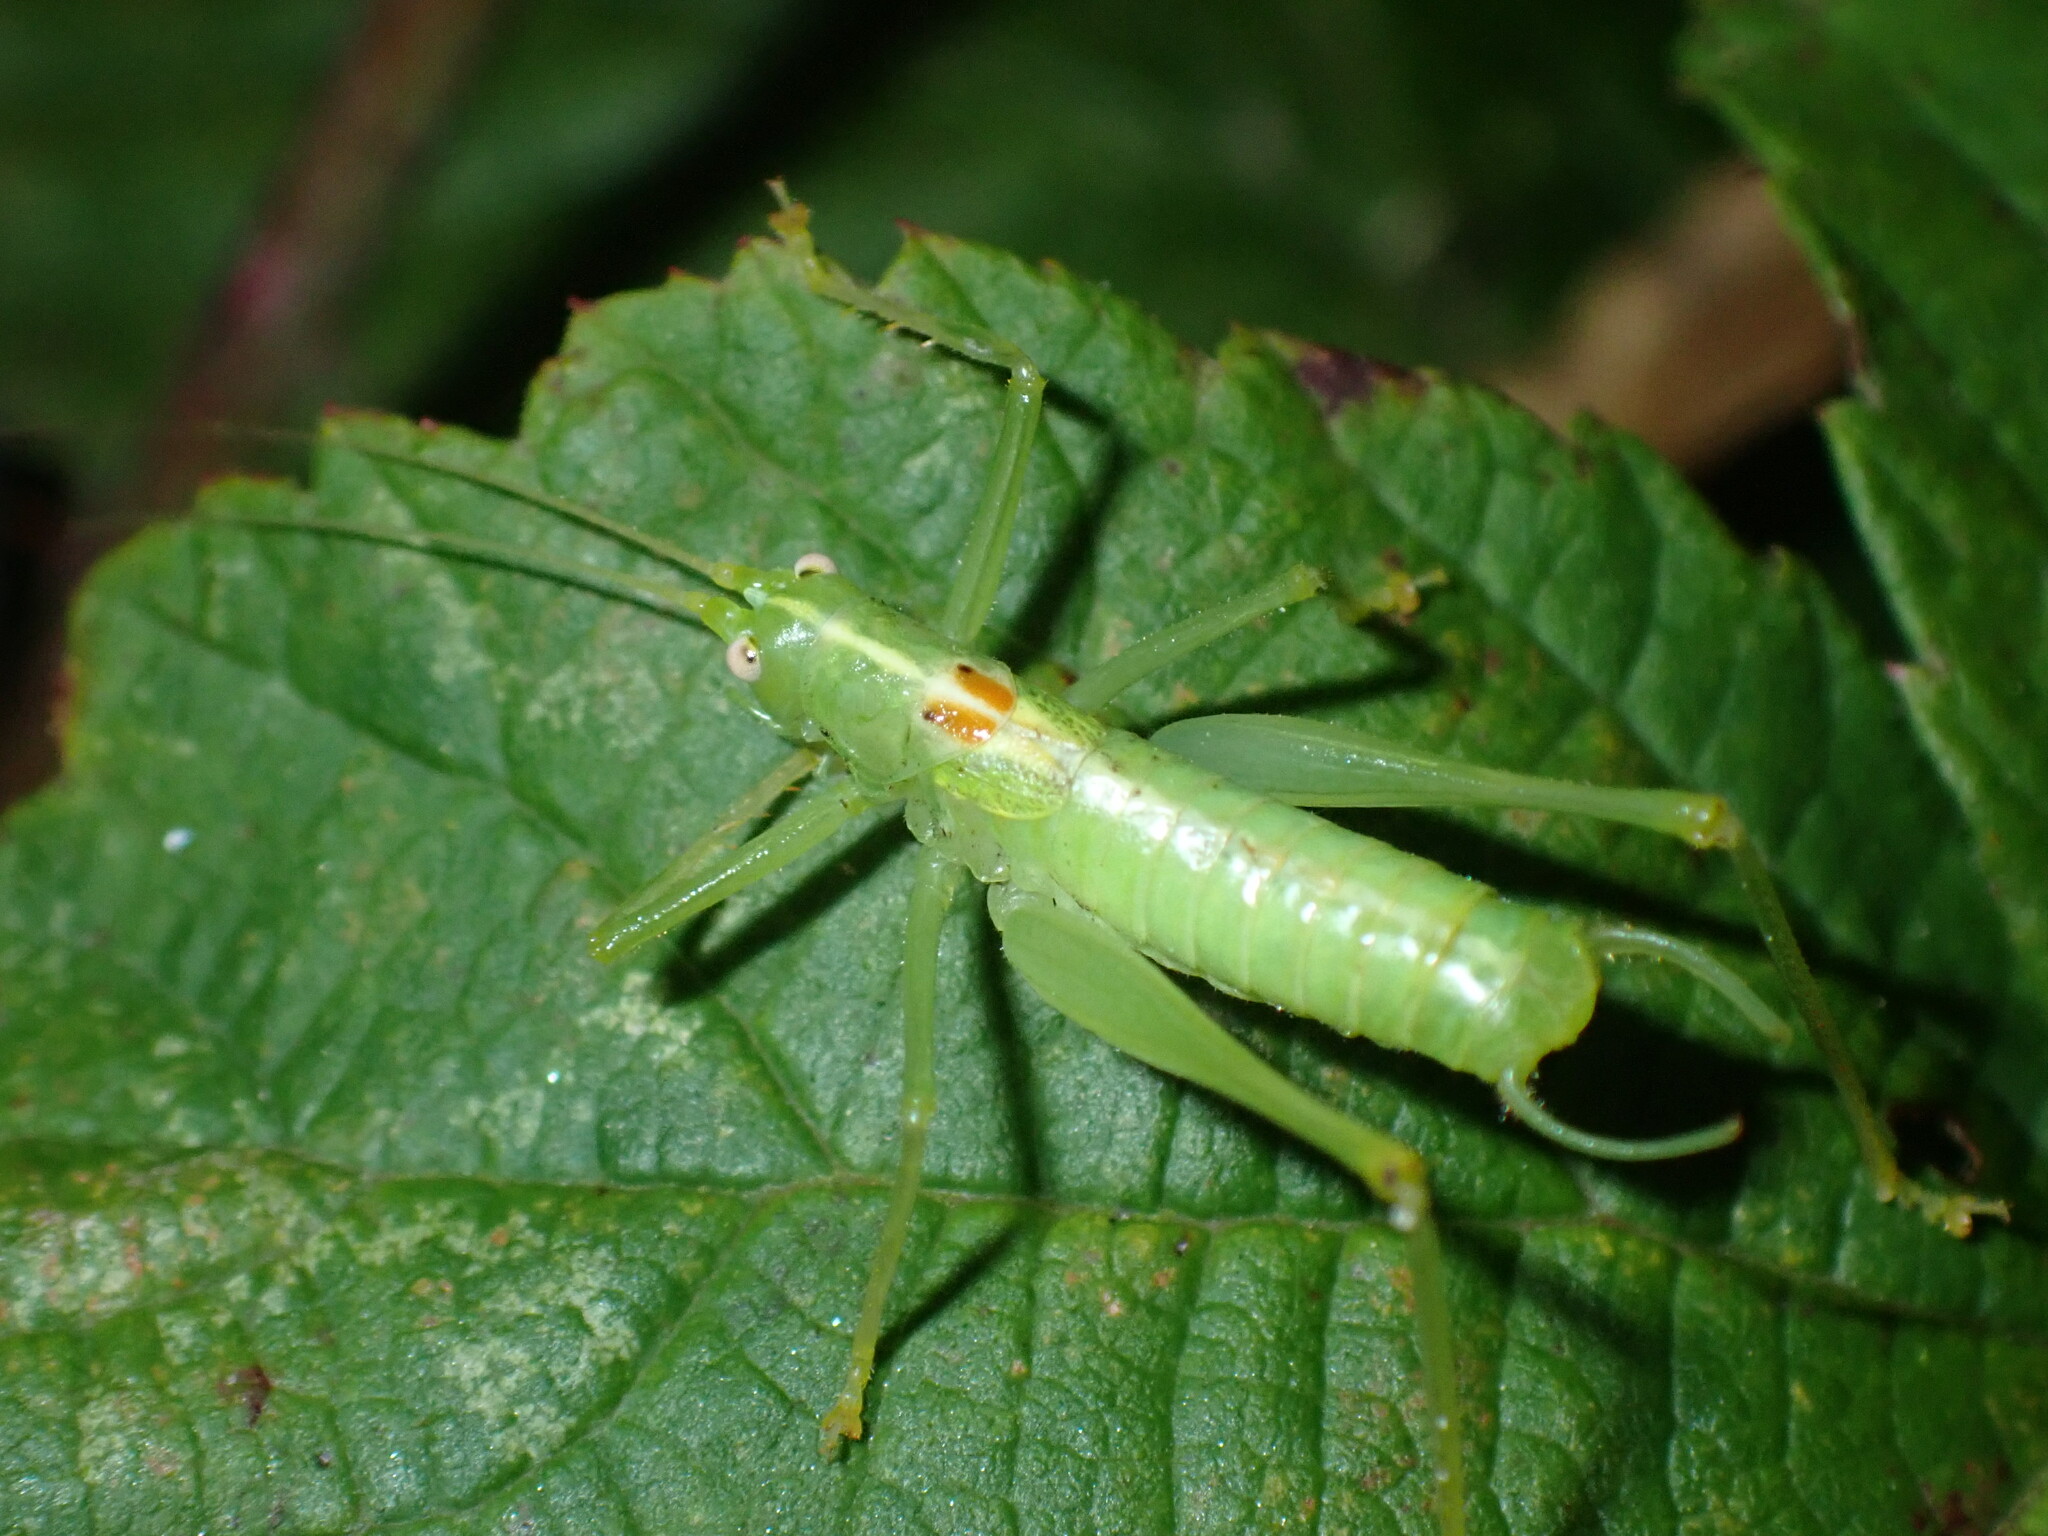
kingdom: Animalia
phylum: Arthropoda
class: Insecta
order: Orthoptera
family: Tettigoniidae
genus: Meconema
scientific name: Meconema meridionale
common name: Southern oak bush-cricket
